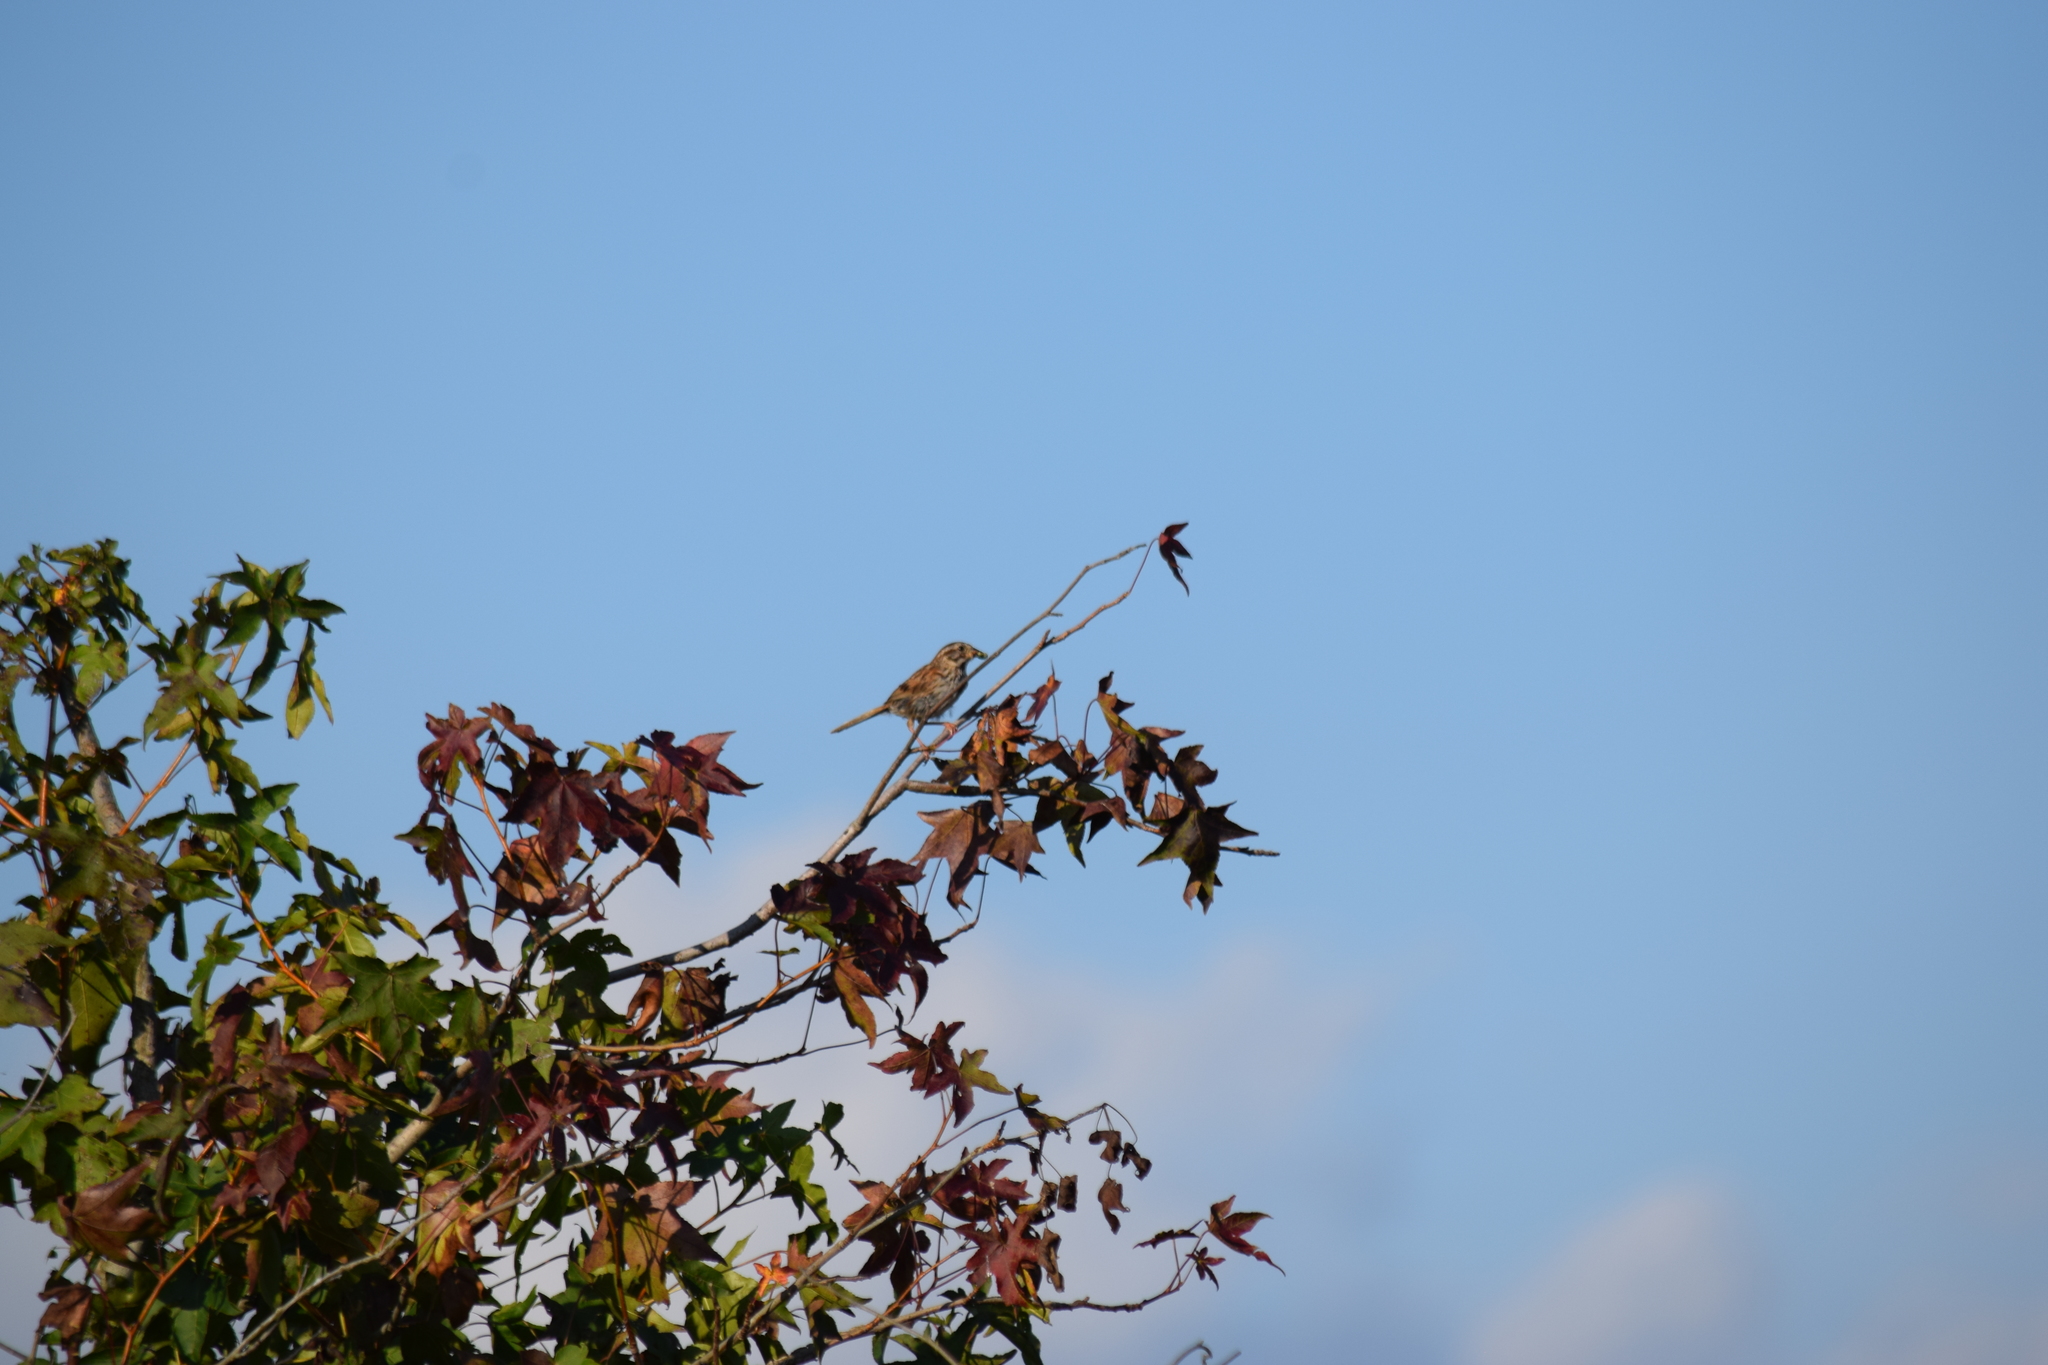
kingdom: Animalia
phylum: Chordata
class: Aves
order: Passeriformes
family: Passerellidae
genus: Melospiza
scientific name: Melospiza melodia
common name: Song sparrow
